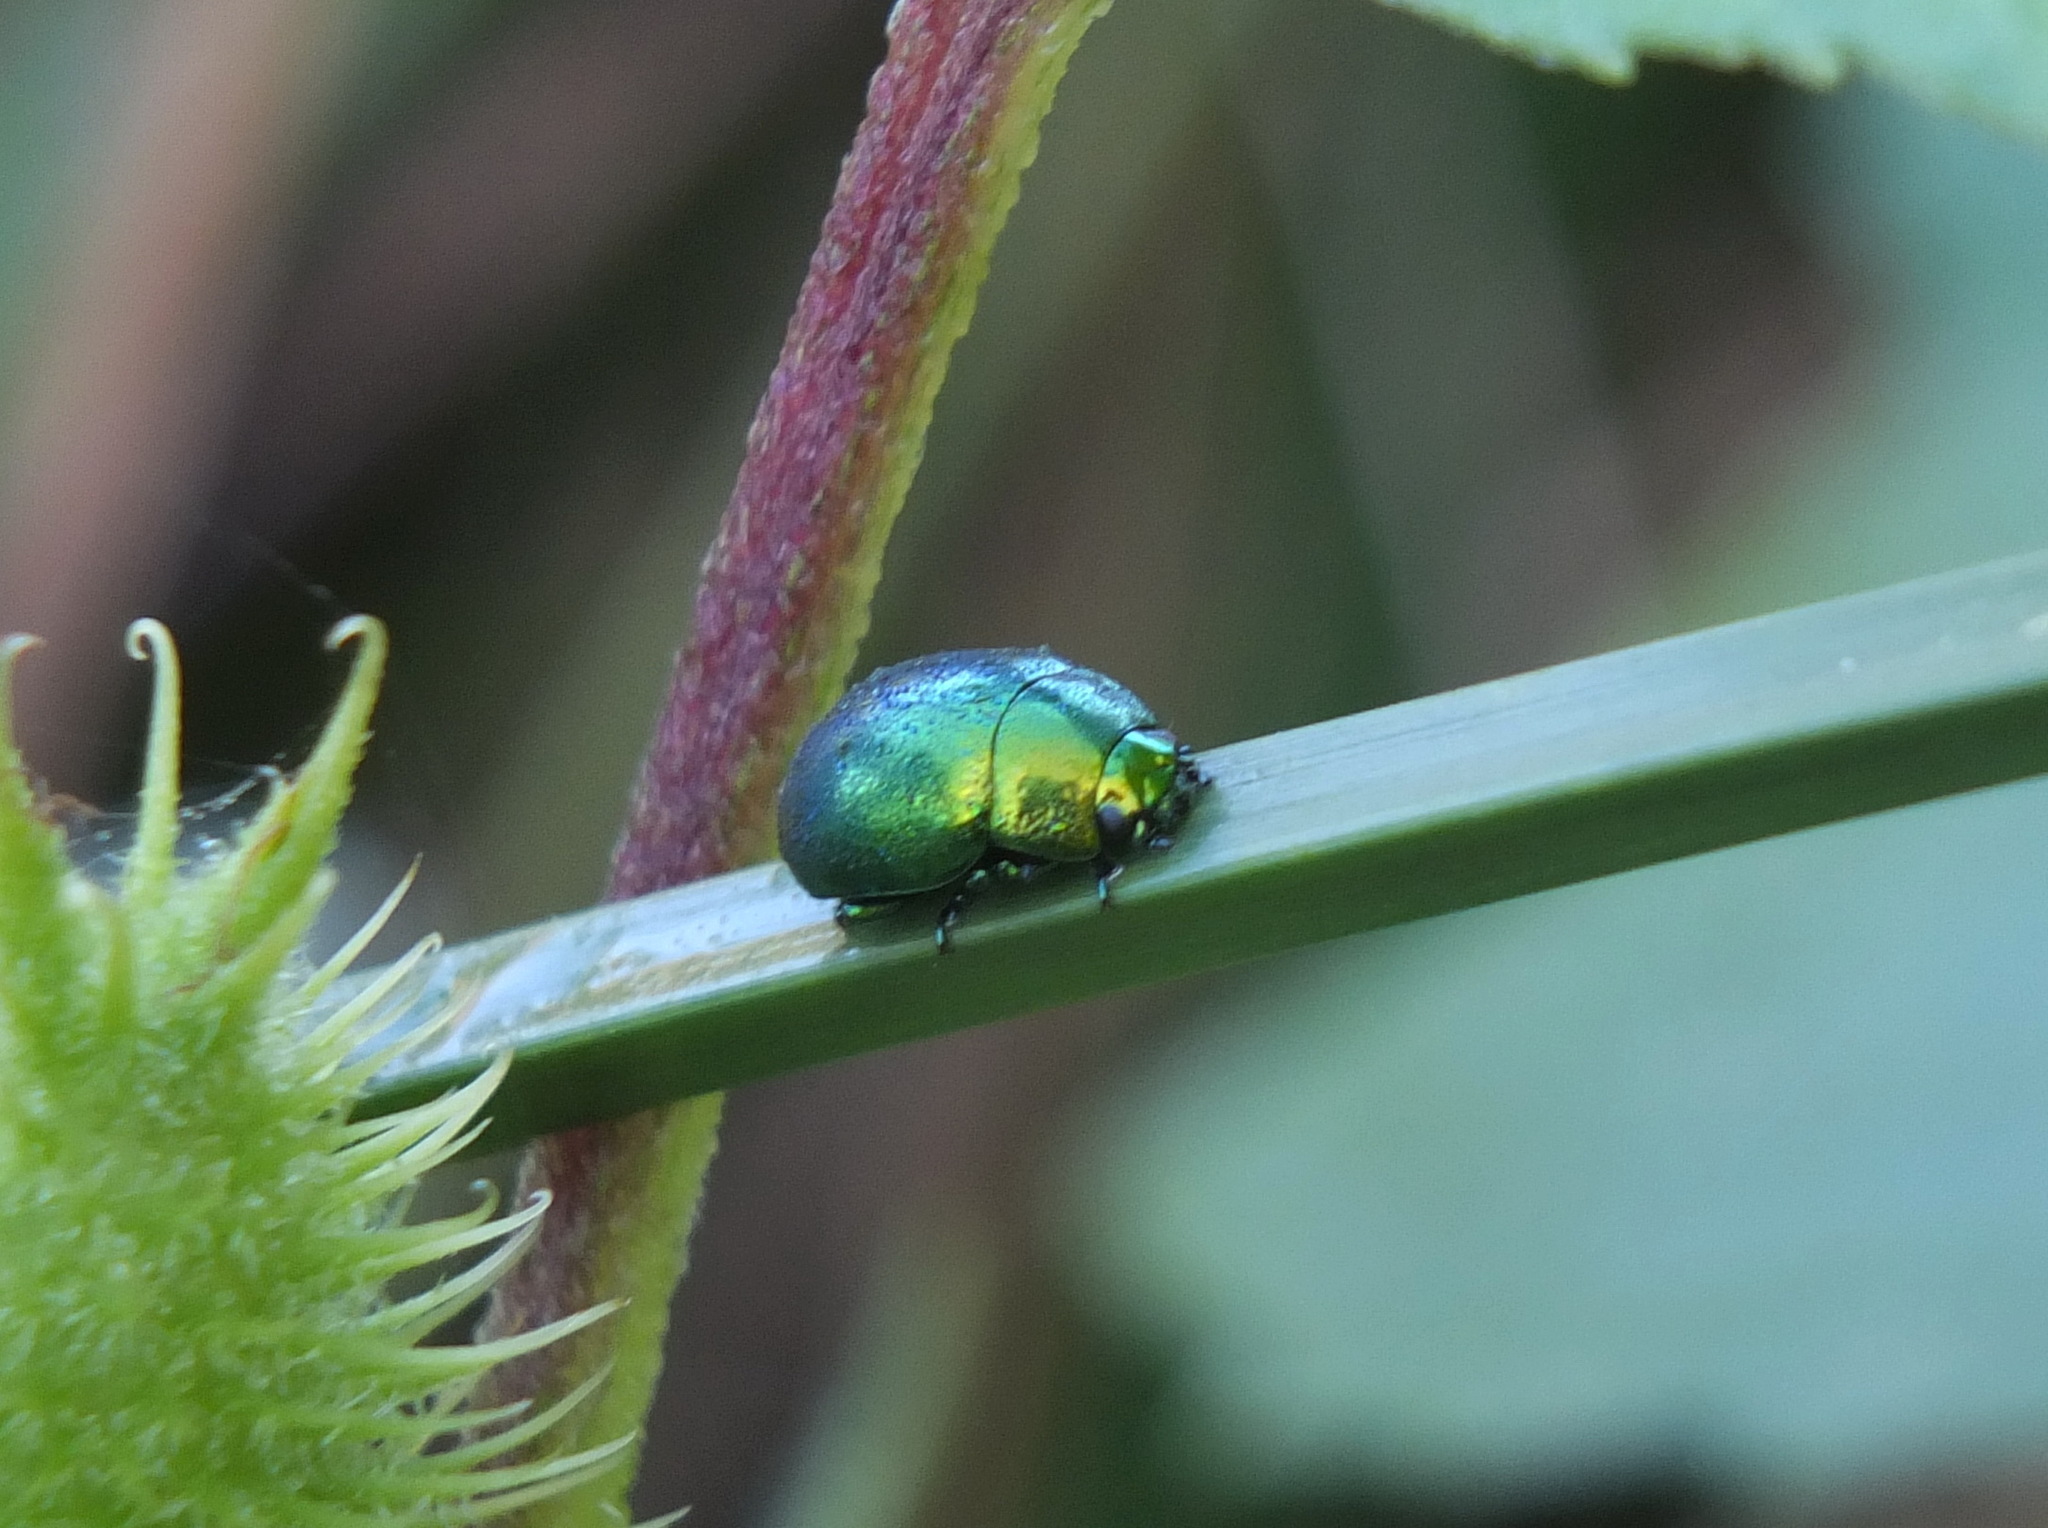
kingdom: Animalia
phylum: Arthropoda
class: Insecta
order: Coleoptera
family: Chrysomelidae
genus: Chrysolina
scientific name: Chrysolina viridana
